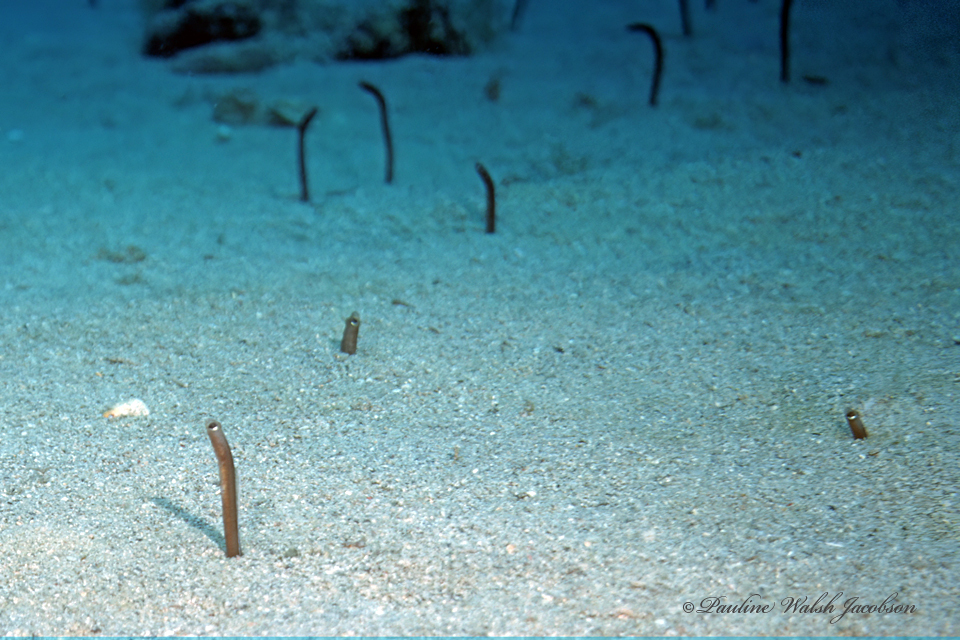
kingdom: Animalia
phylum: Chordata
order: Anguilliformes
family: Congridae
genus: Heteroconger
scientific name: Heteroconger longissimus
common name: Garden eel
